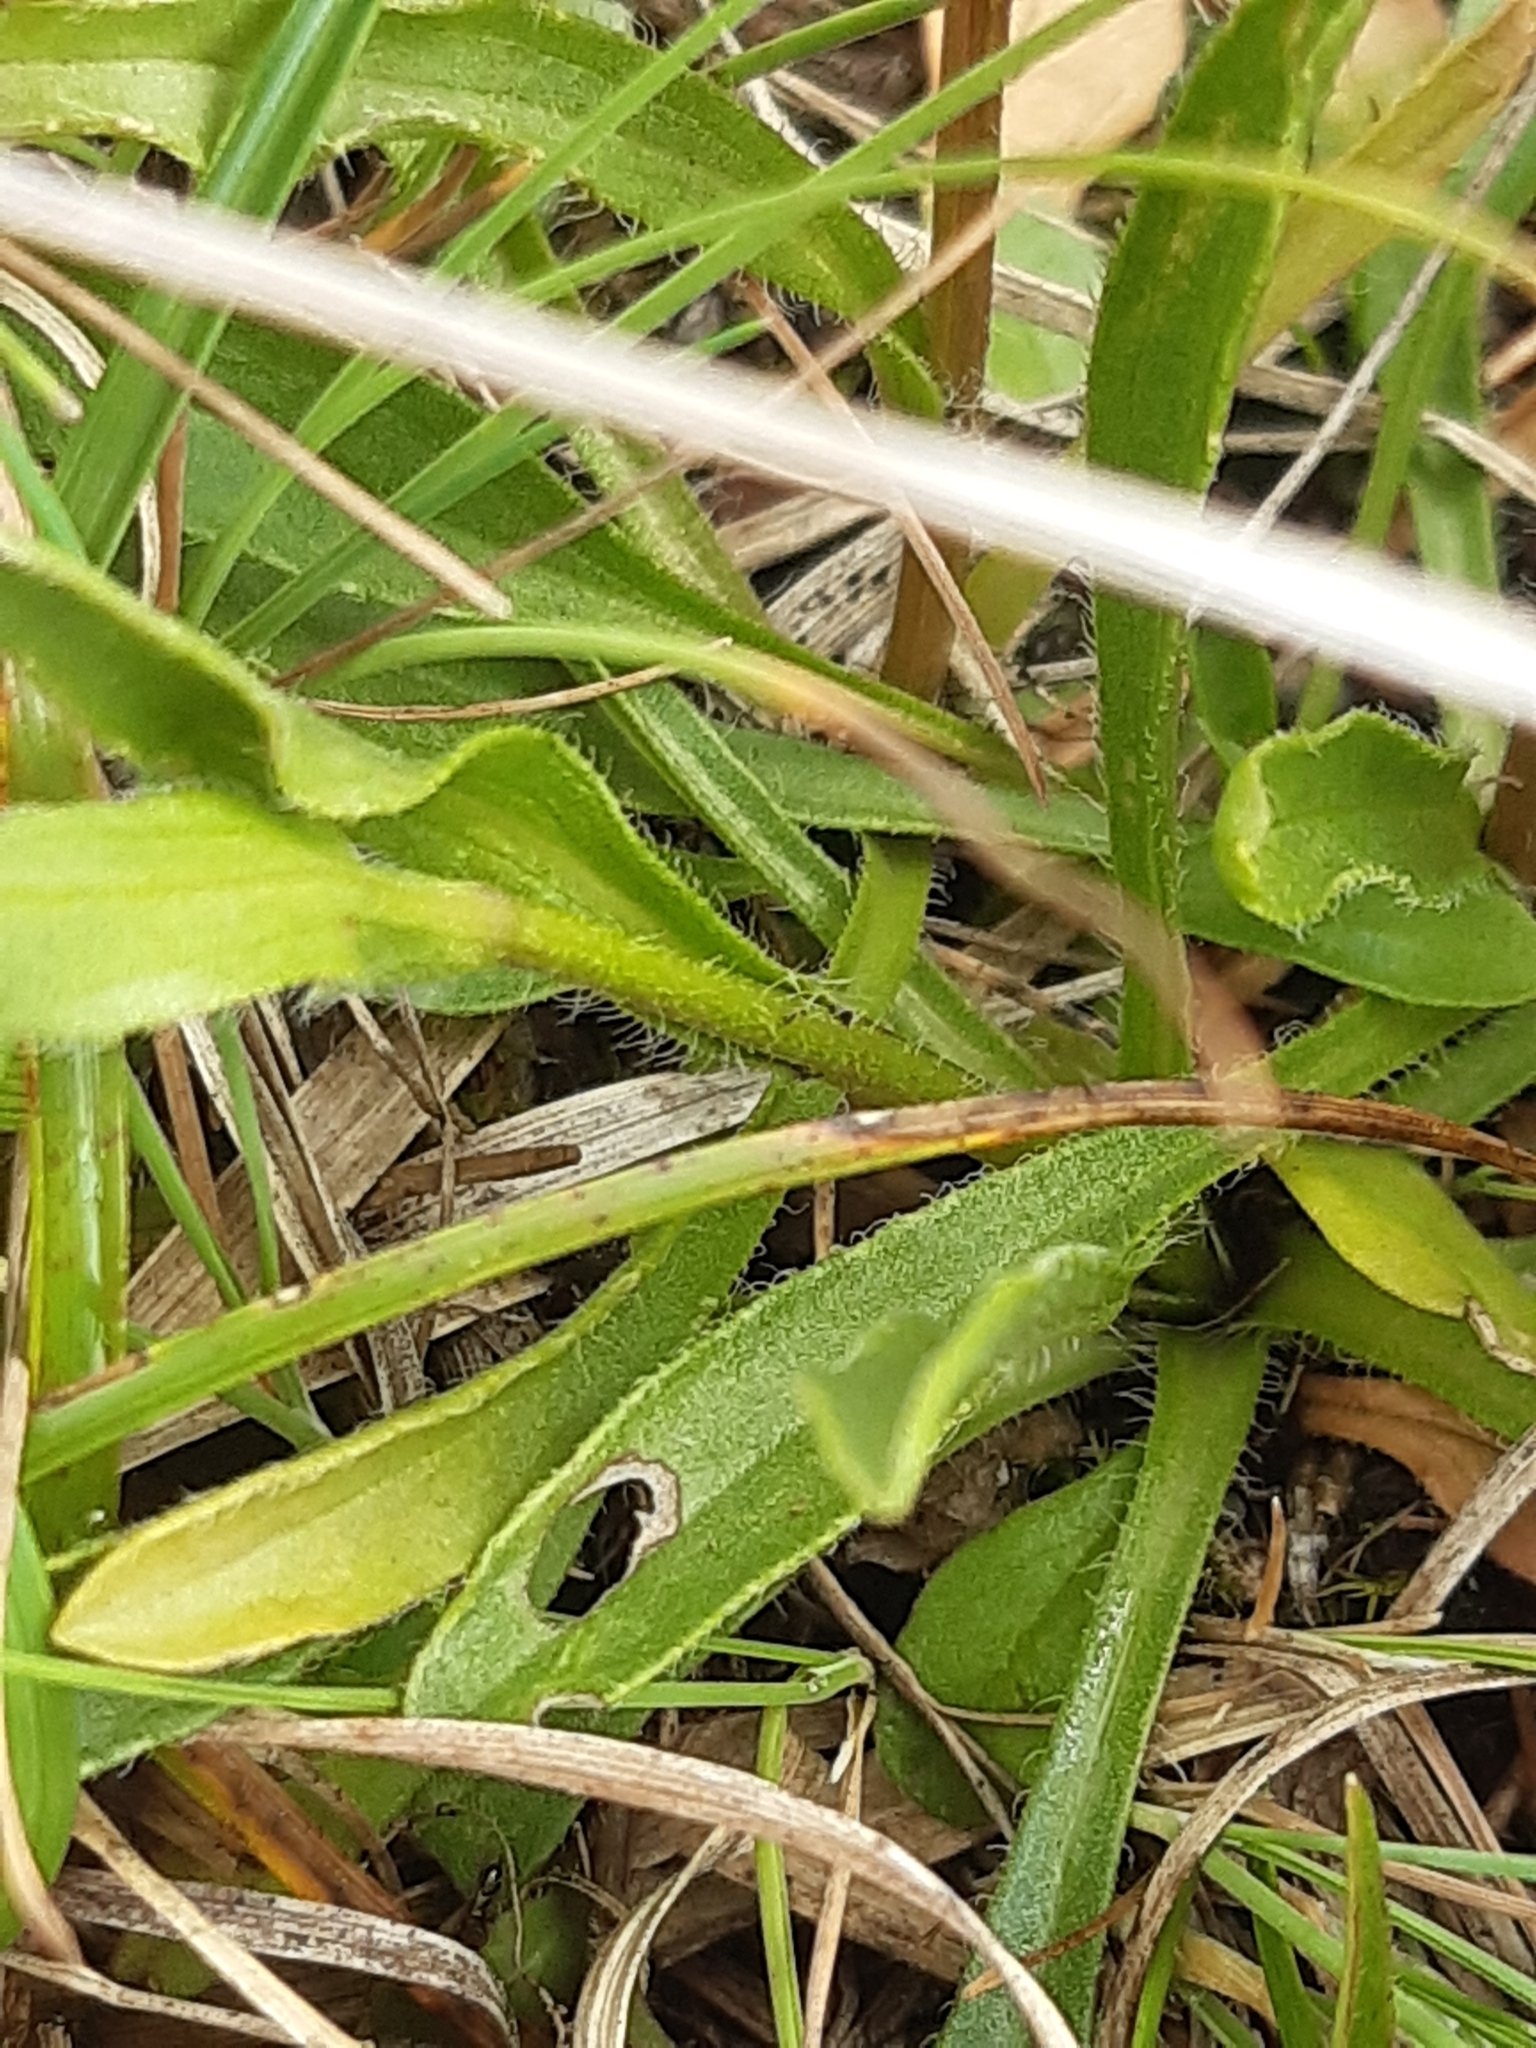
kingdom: Plantae
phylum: Tracheophyta
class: Magnoliopsida
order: Asterales
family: Asteraceae
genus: Erigeron
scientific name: Erigeron glabratus
